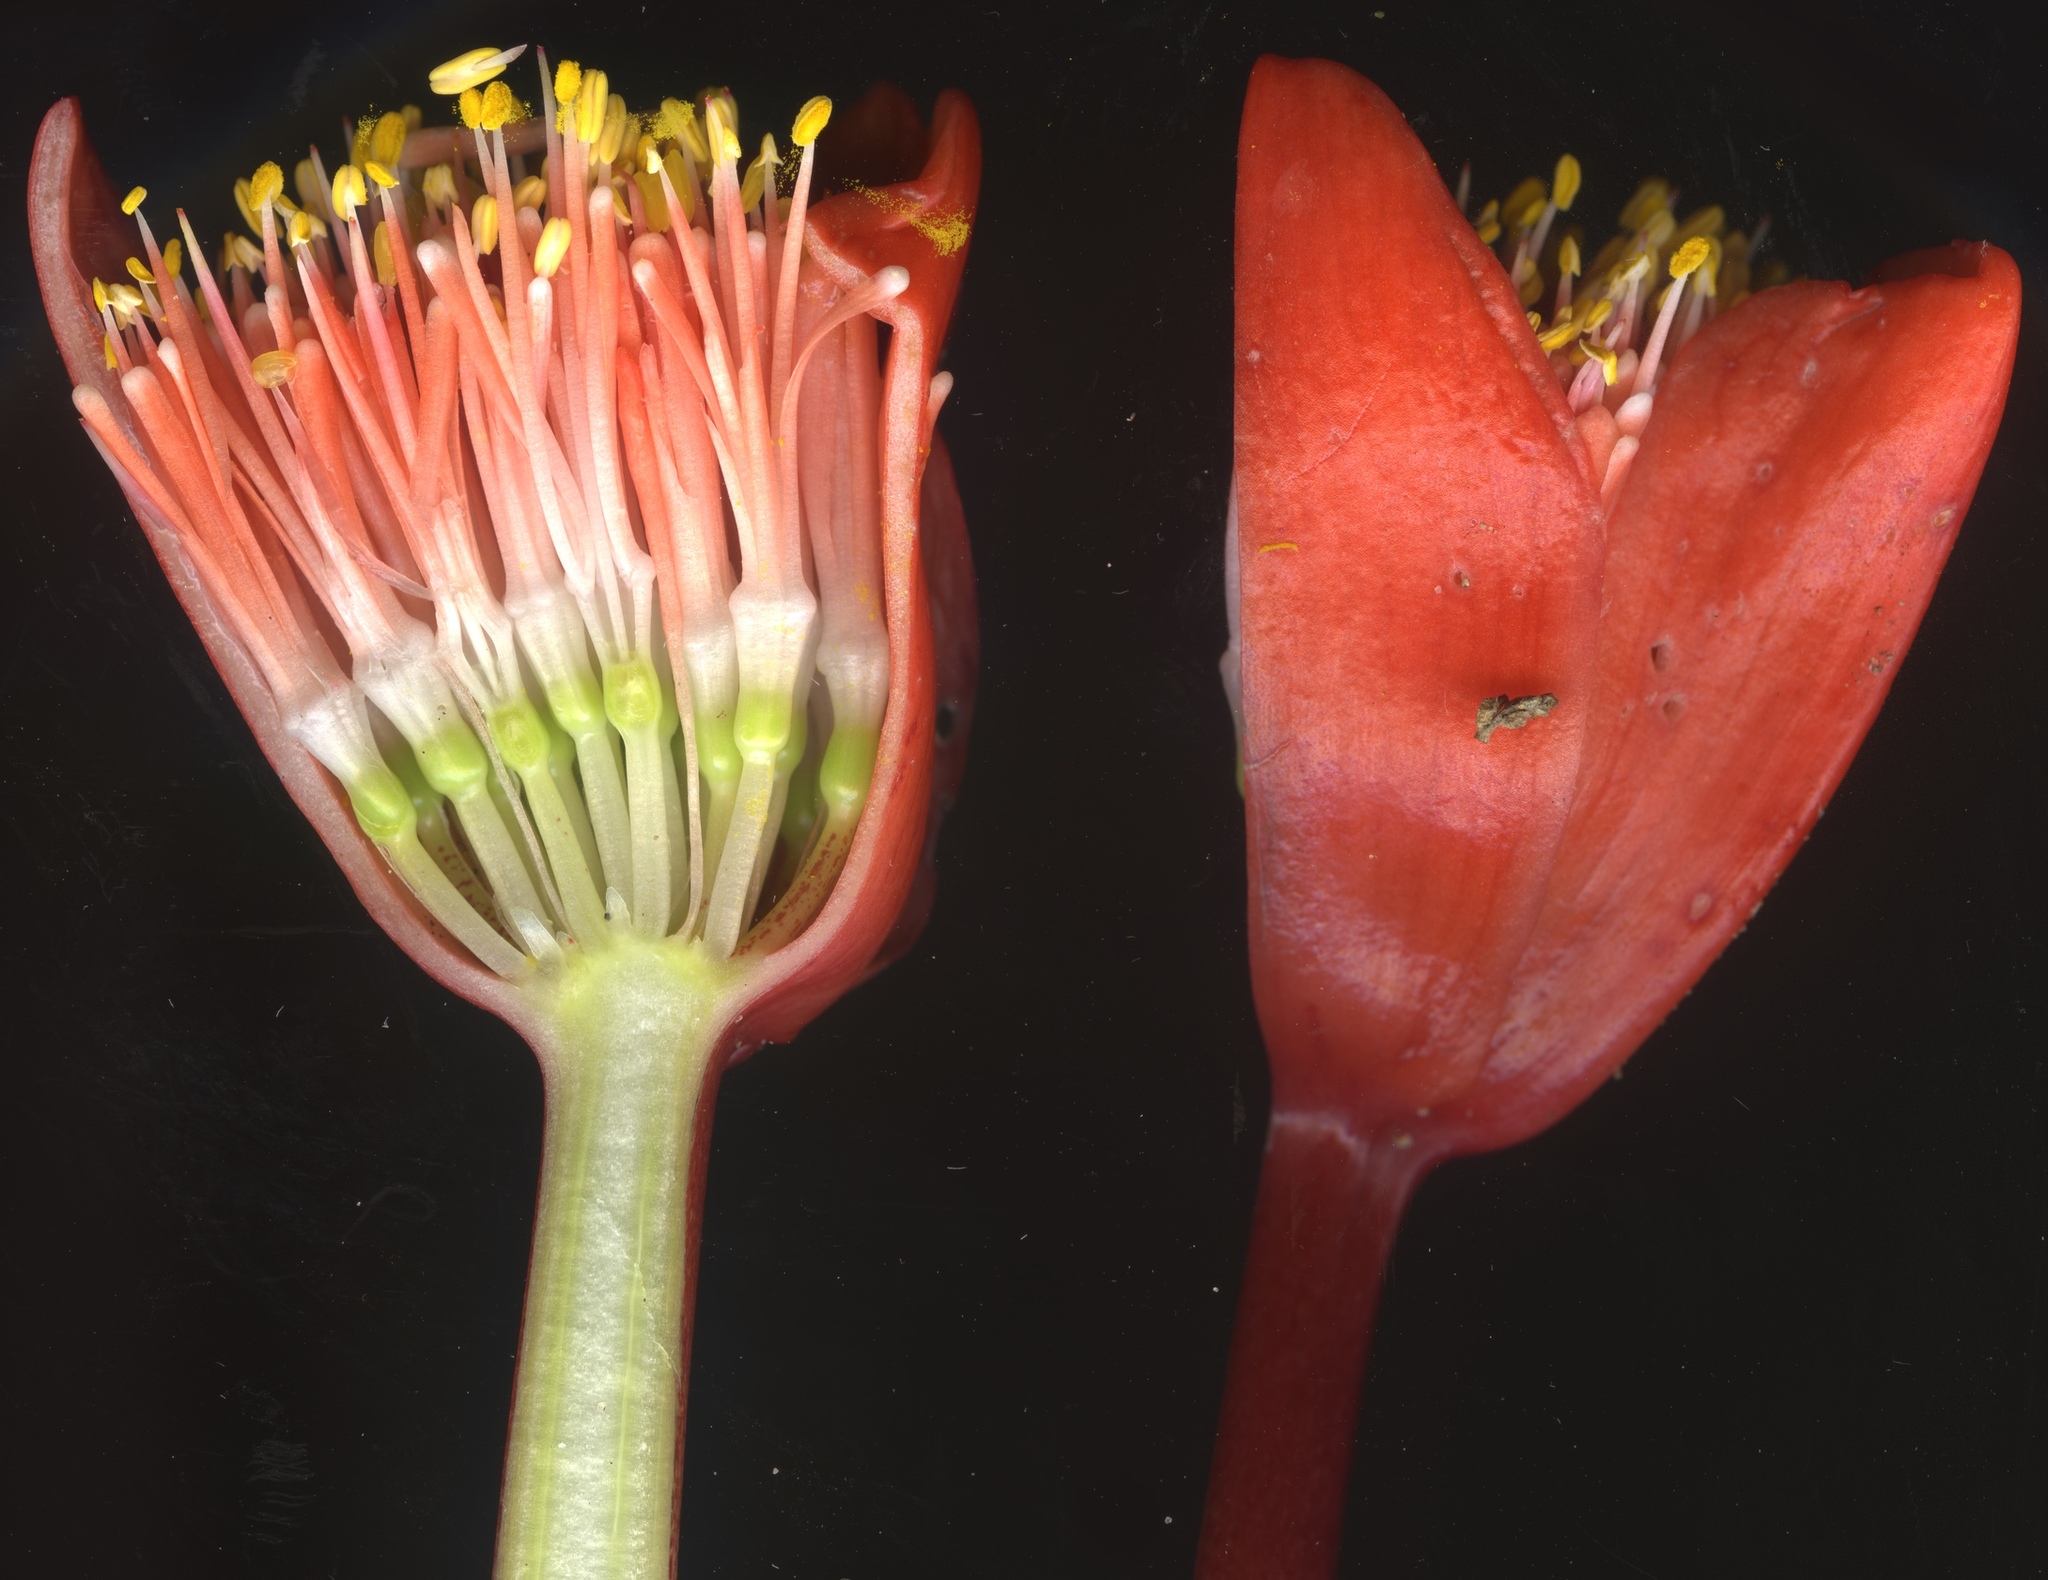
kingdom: Plantae
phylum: Tracheophyta
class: Liliopsida
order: Asparagales
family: Amaryllidaceae
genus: Haemanthus
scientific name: Haemanthus coccineus
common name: Cape-tulip
